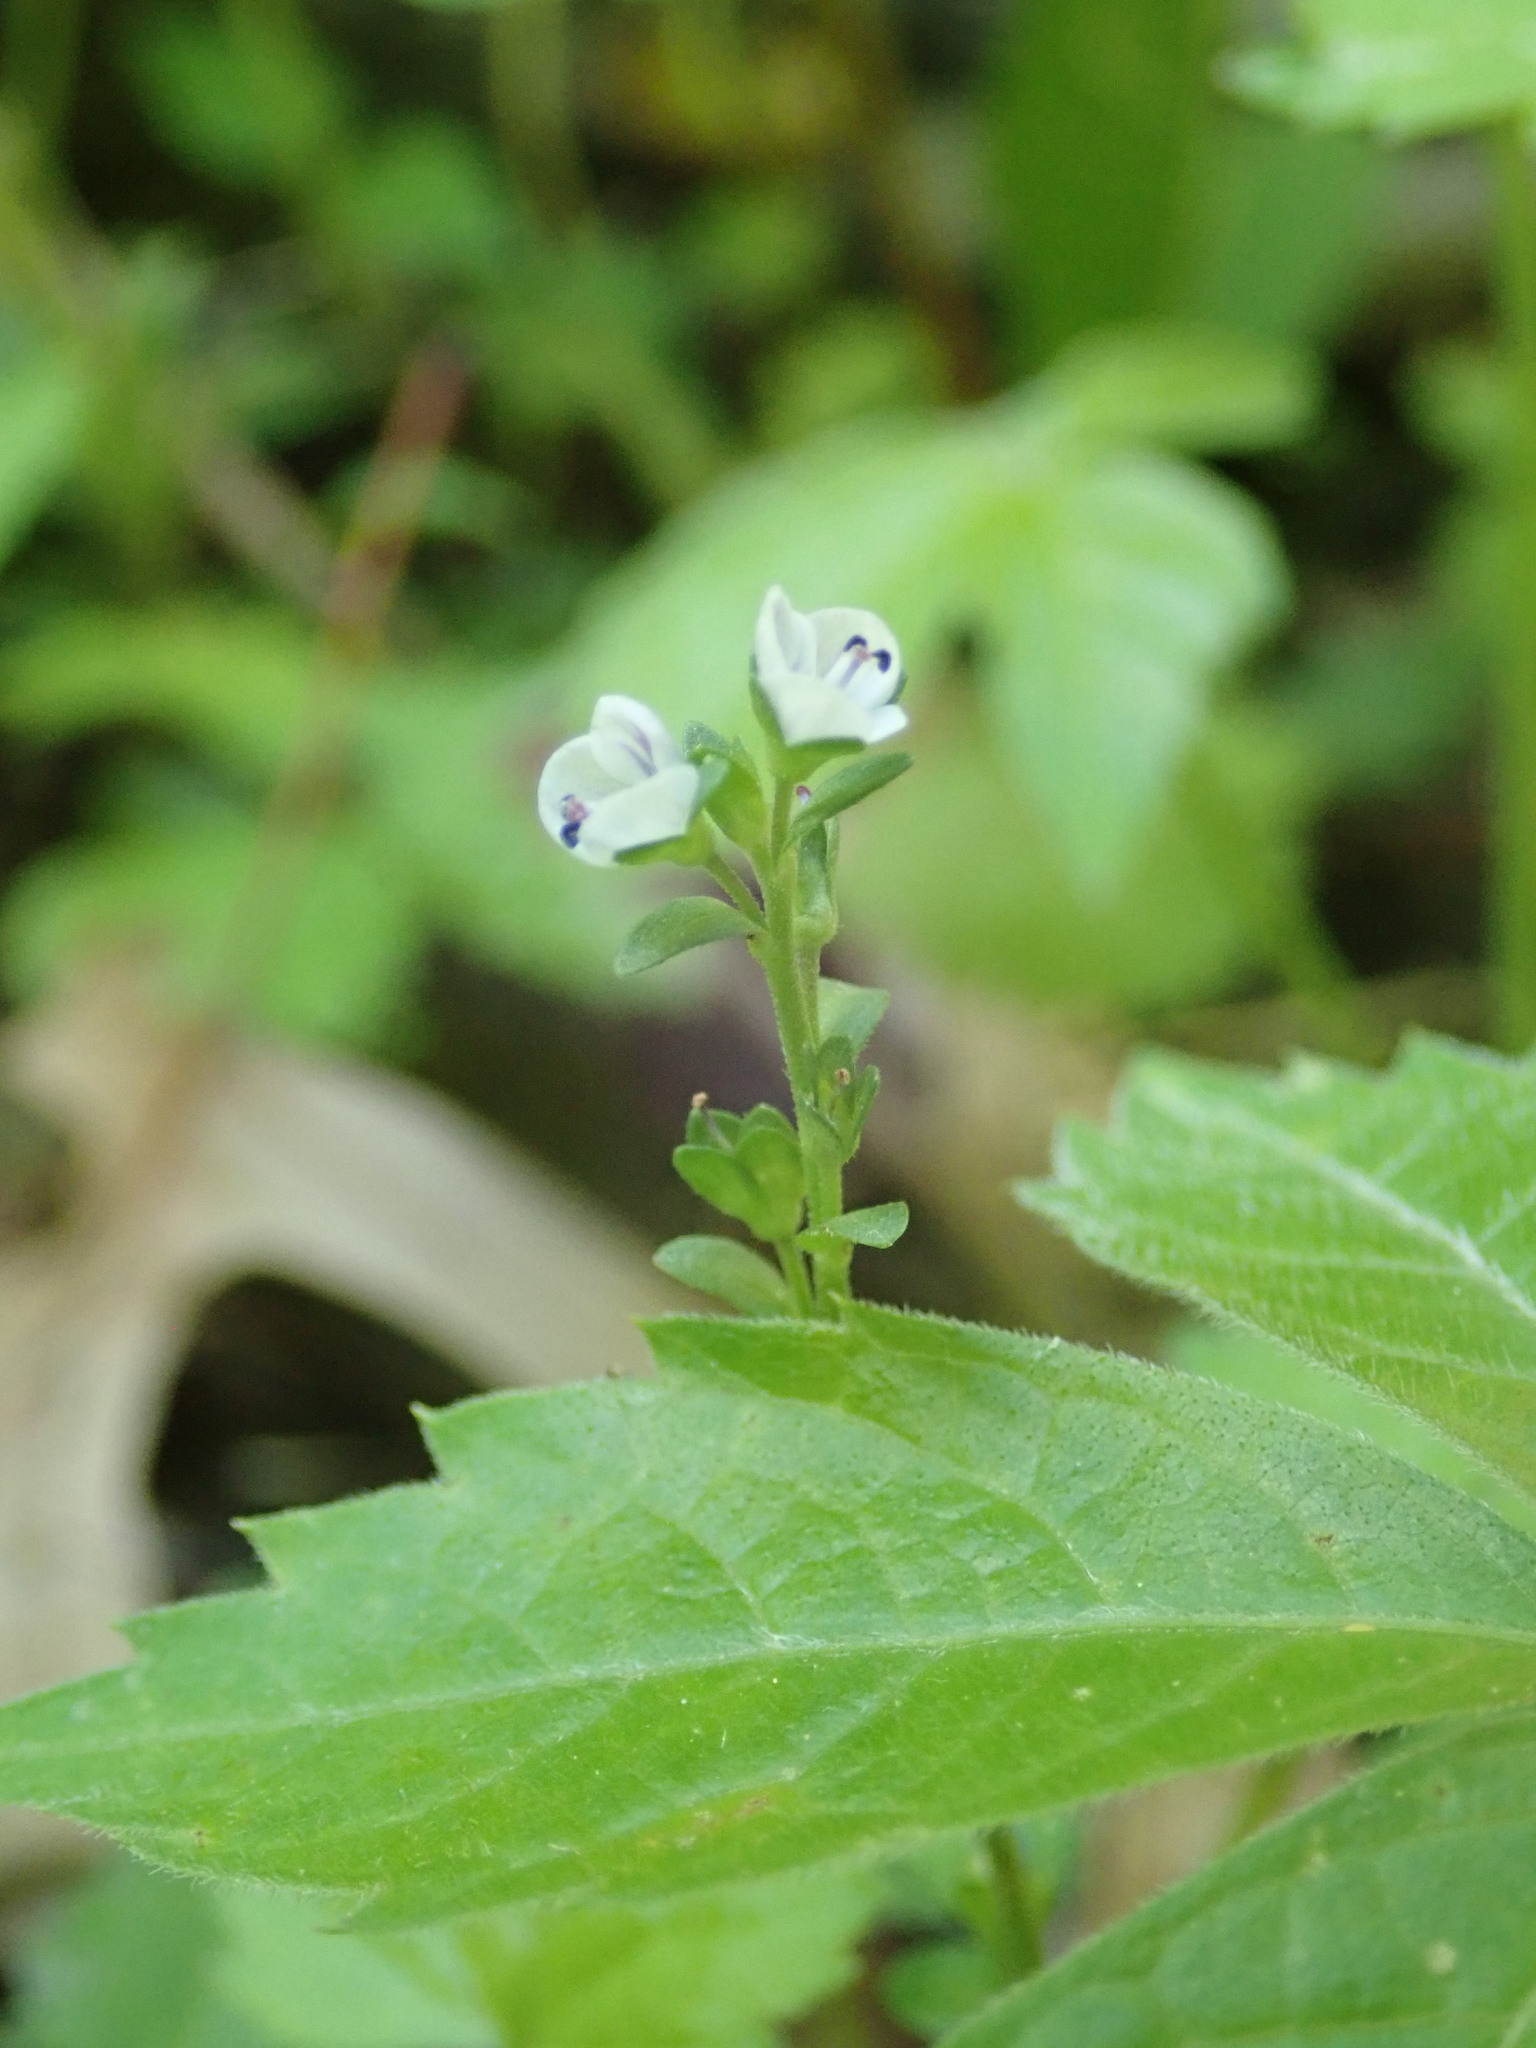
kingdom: Plantae
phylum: Tracheophyta
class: Magnoliopsida
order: Lamiales
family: Plantaginaceae
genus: Veronica
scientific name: Veronica serpyllifolia
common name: Thyme-leaved speedwell
